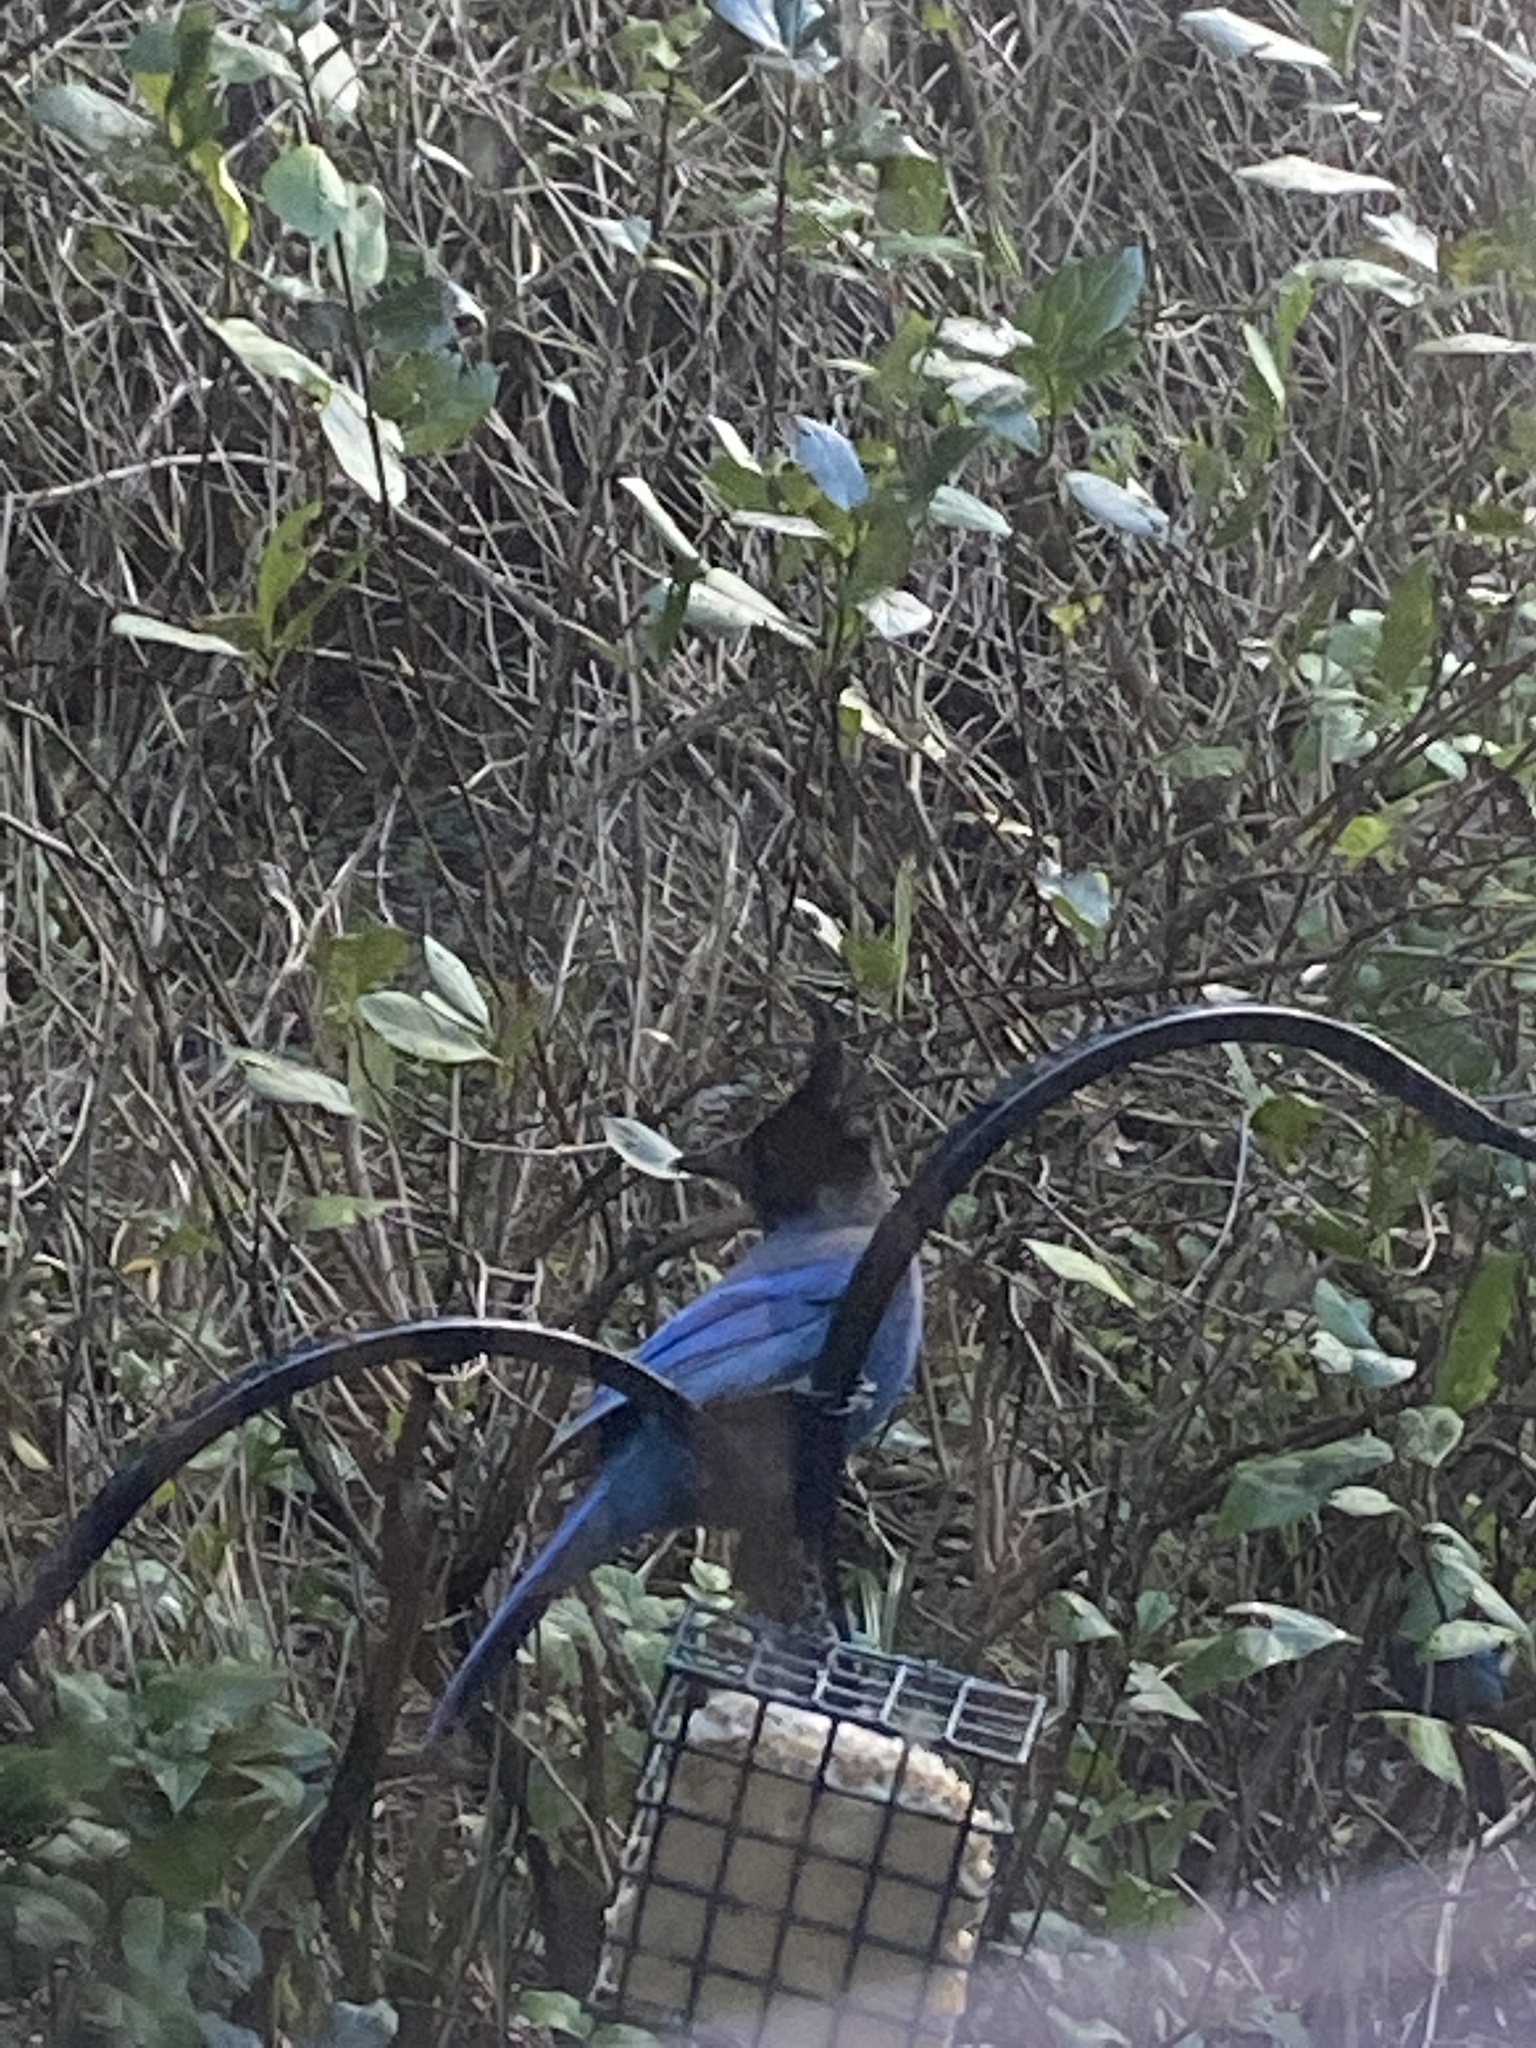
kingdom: Animalia
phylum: Chordata
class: Aves
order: Passeriformes
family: Corvidae
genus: Cyanocitta
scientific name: Cyanocitta stelleri
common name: Steller's jay
